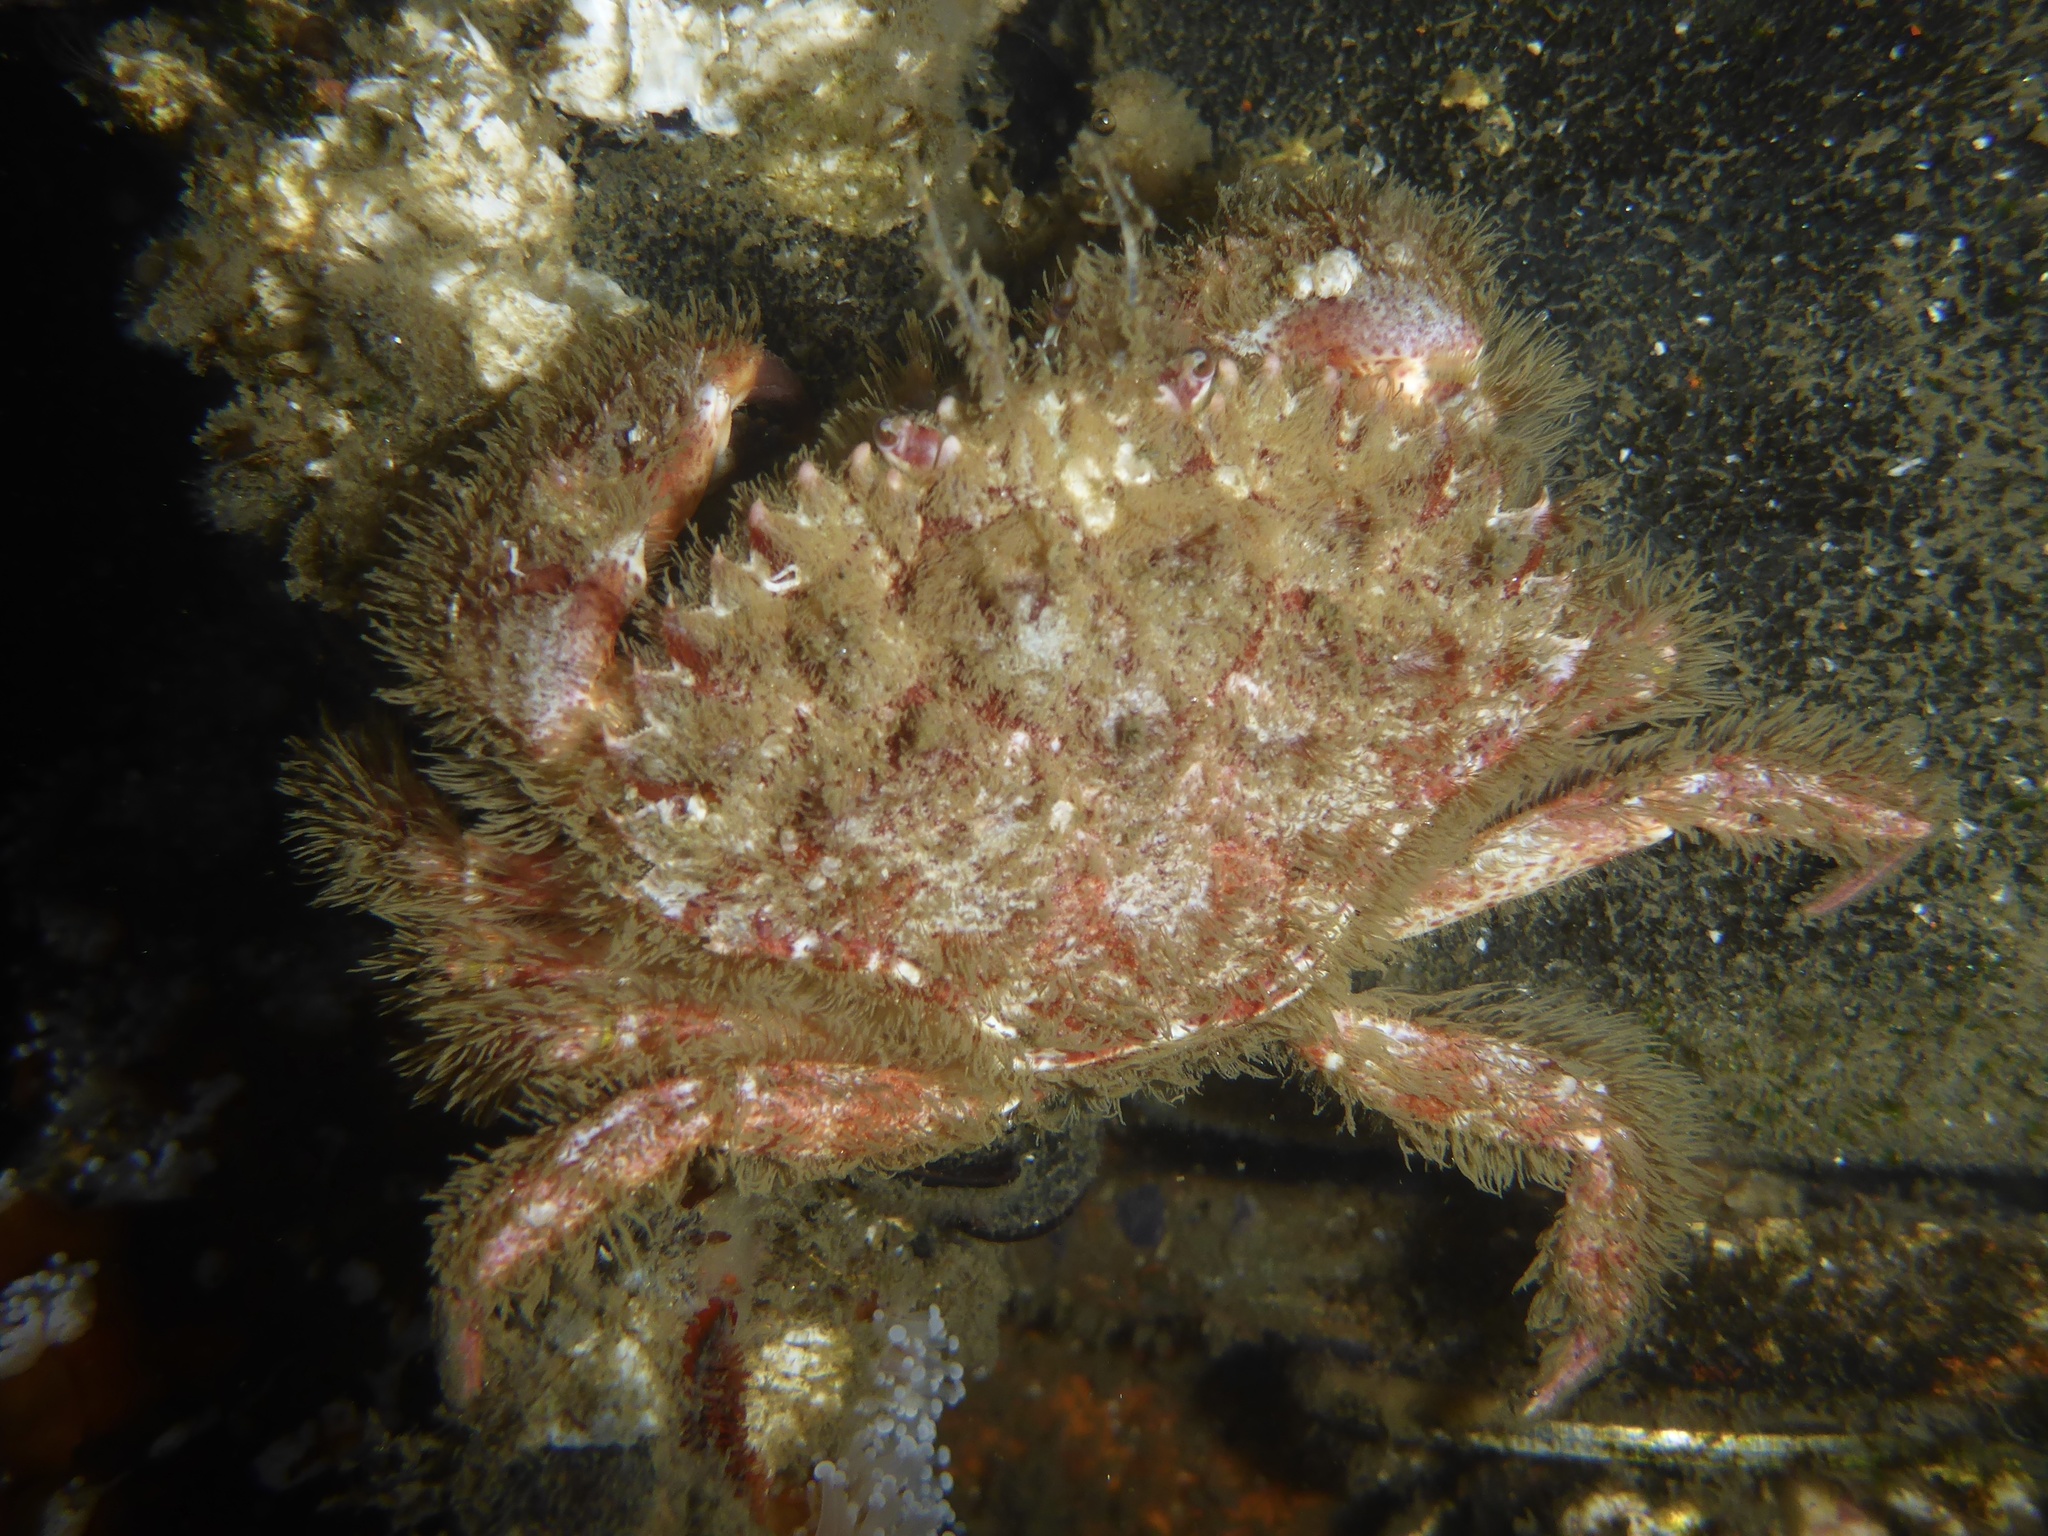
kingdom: Animalia
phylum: Arthropoda
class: Malacostraca
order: Decapoda
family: Cancridae
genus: Romaleon
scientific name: Romaleon antennarium
